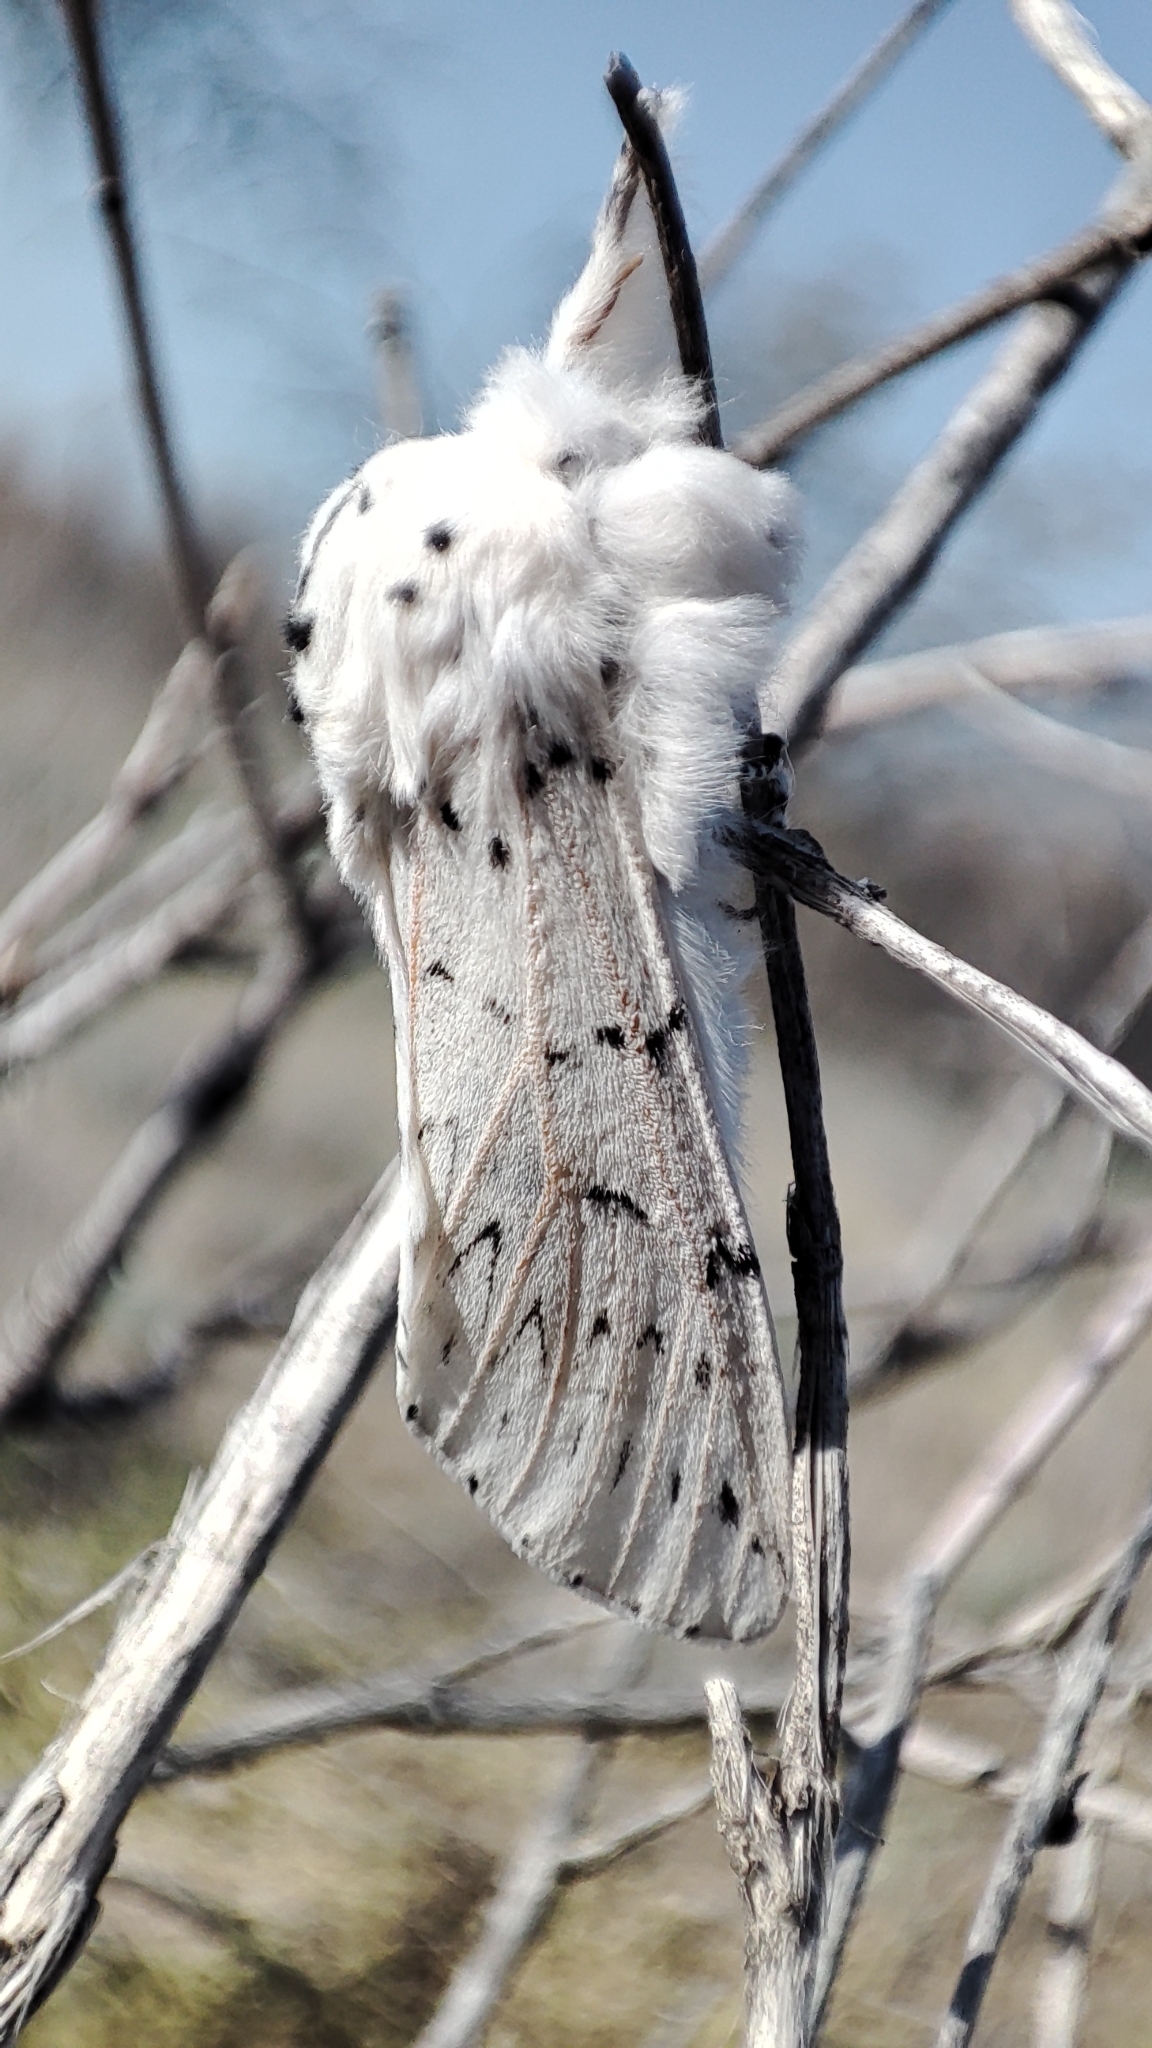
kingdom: Animalia
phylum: Arthropoda
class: Insecta
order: Lepidoptera
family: Notodontidae
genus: Cerura
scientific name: Cerura przewalskii
